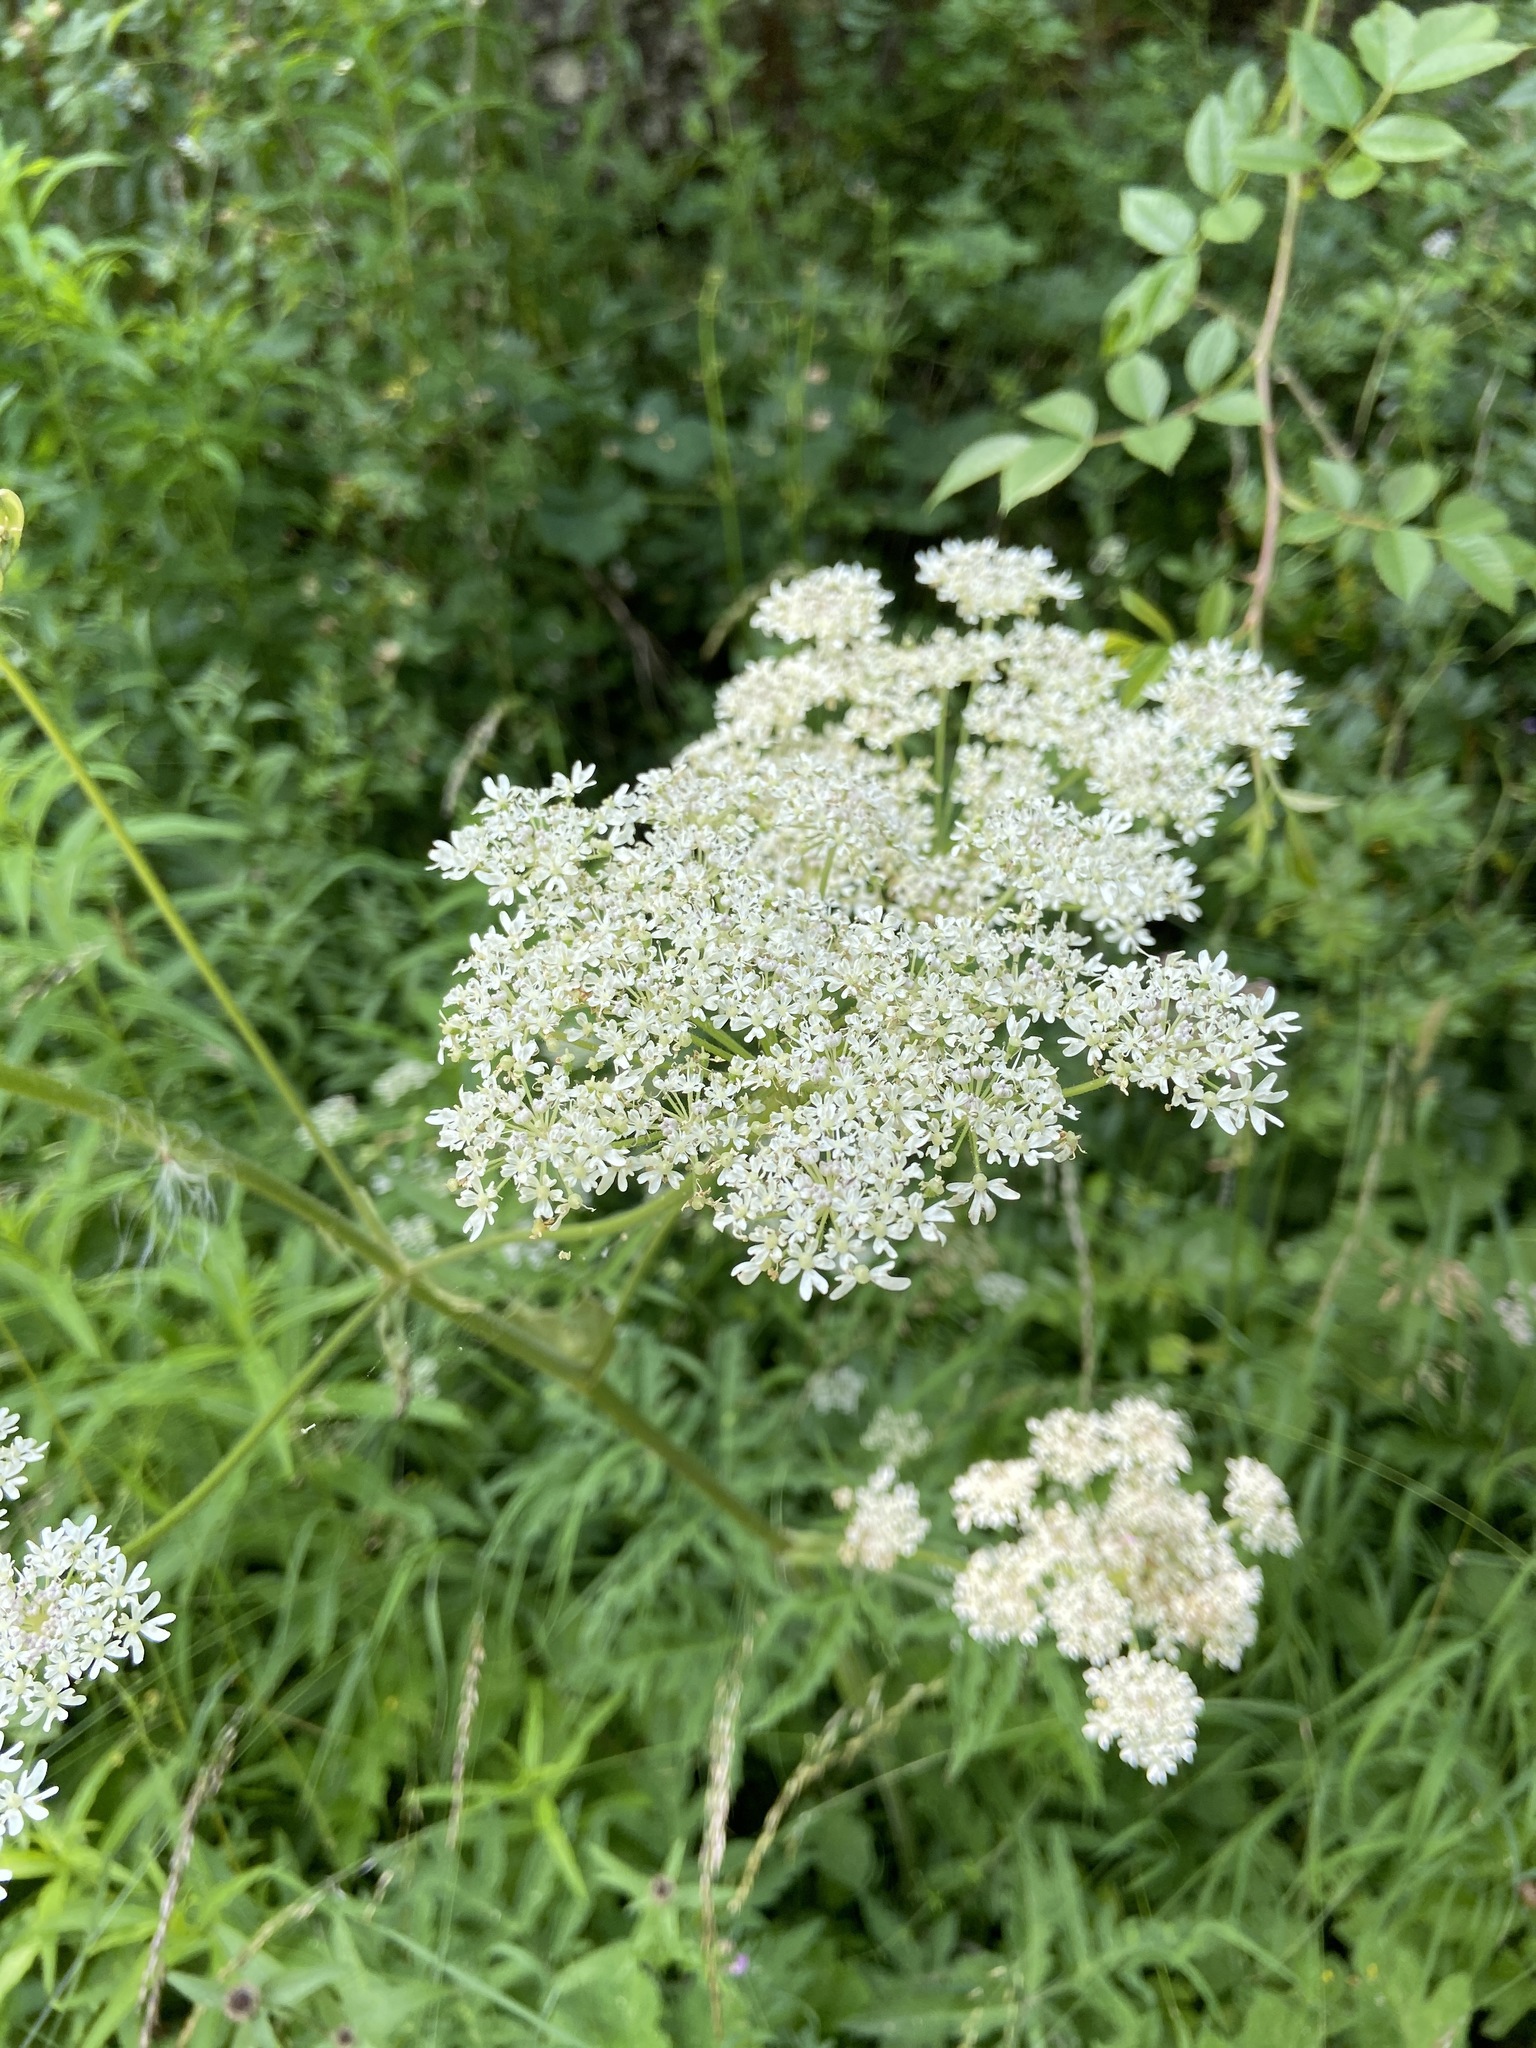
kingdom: Plantae
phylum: Tracheophyta
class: Magnoliopsida
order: Apiales
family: Apiaceae
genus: Heracleum
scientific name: Heracleum sphondylium
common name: Hogweed
